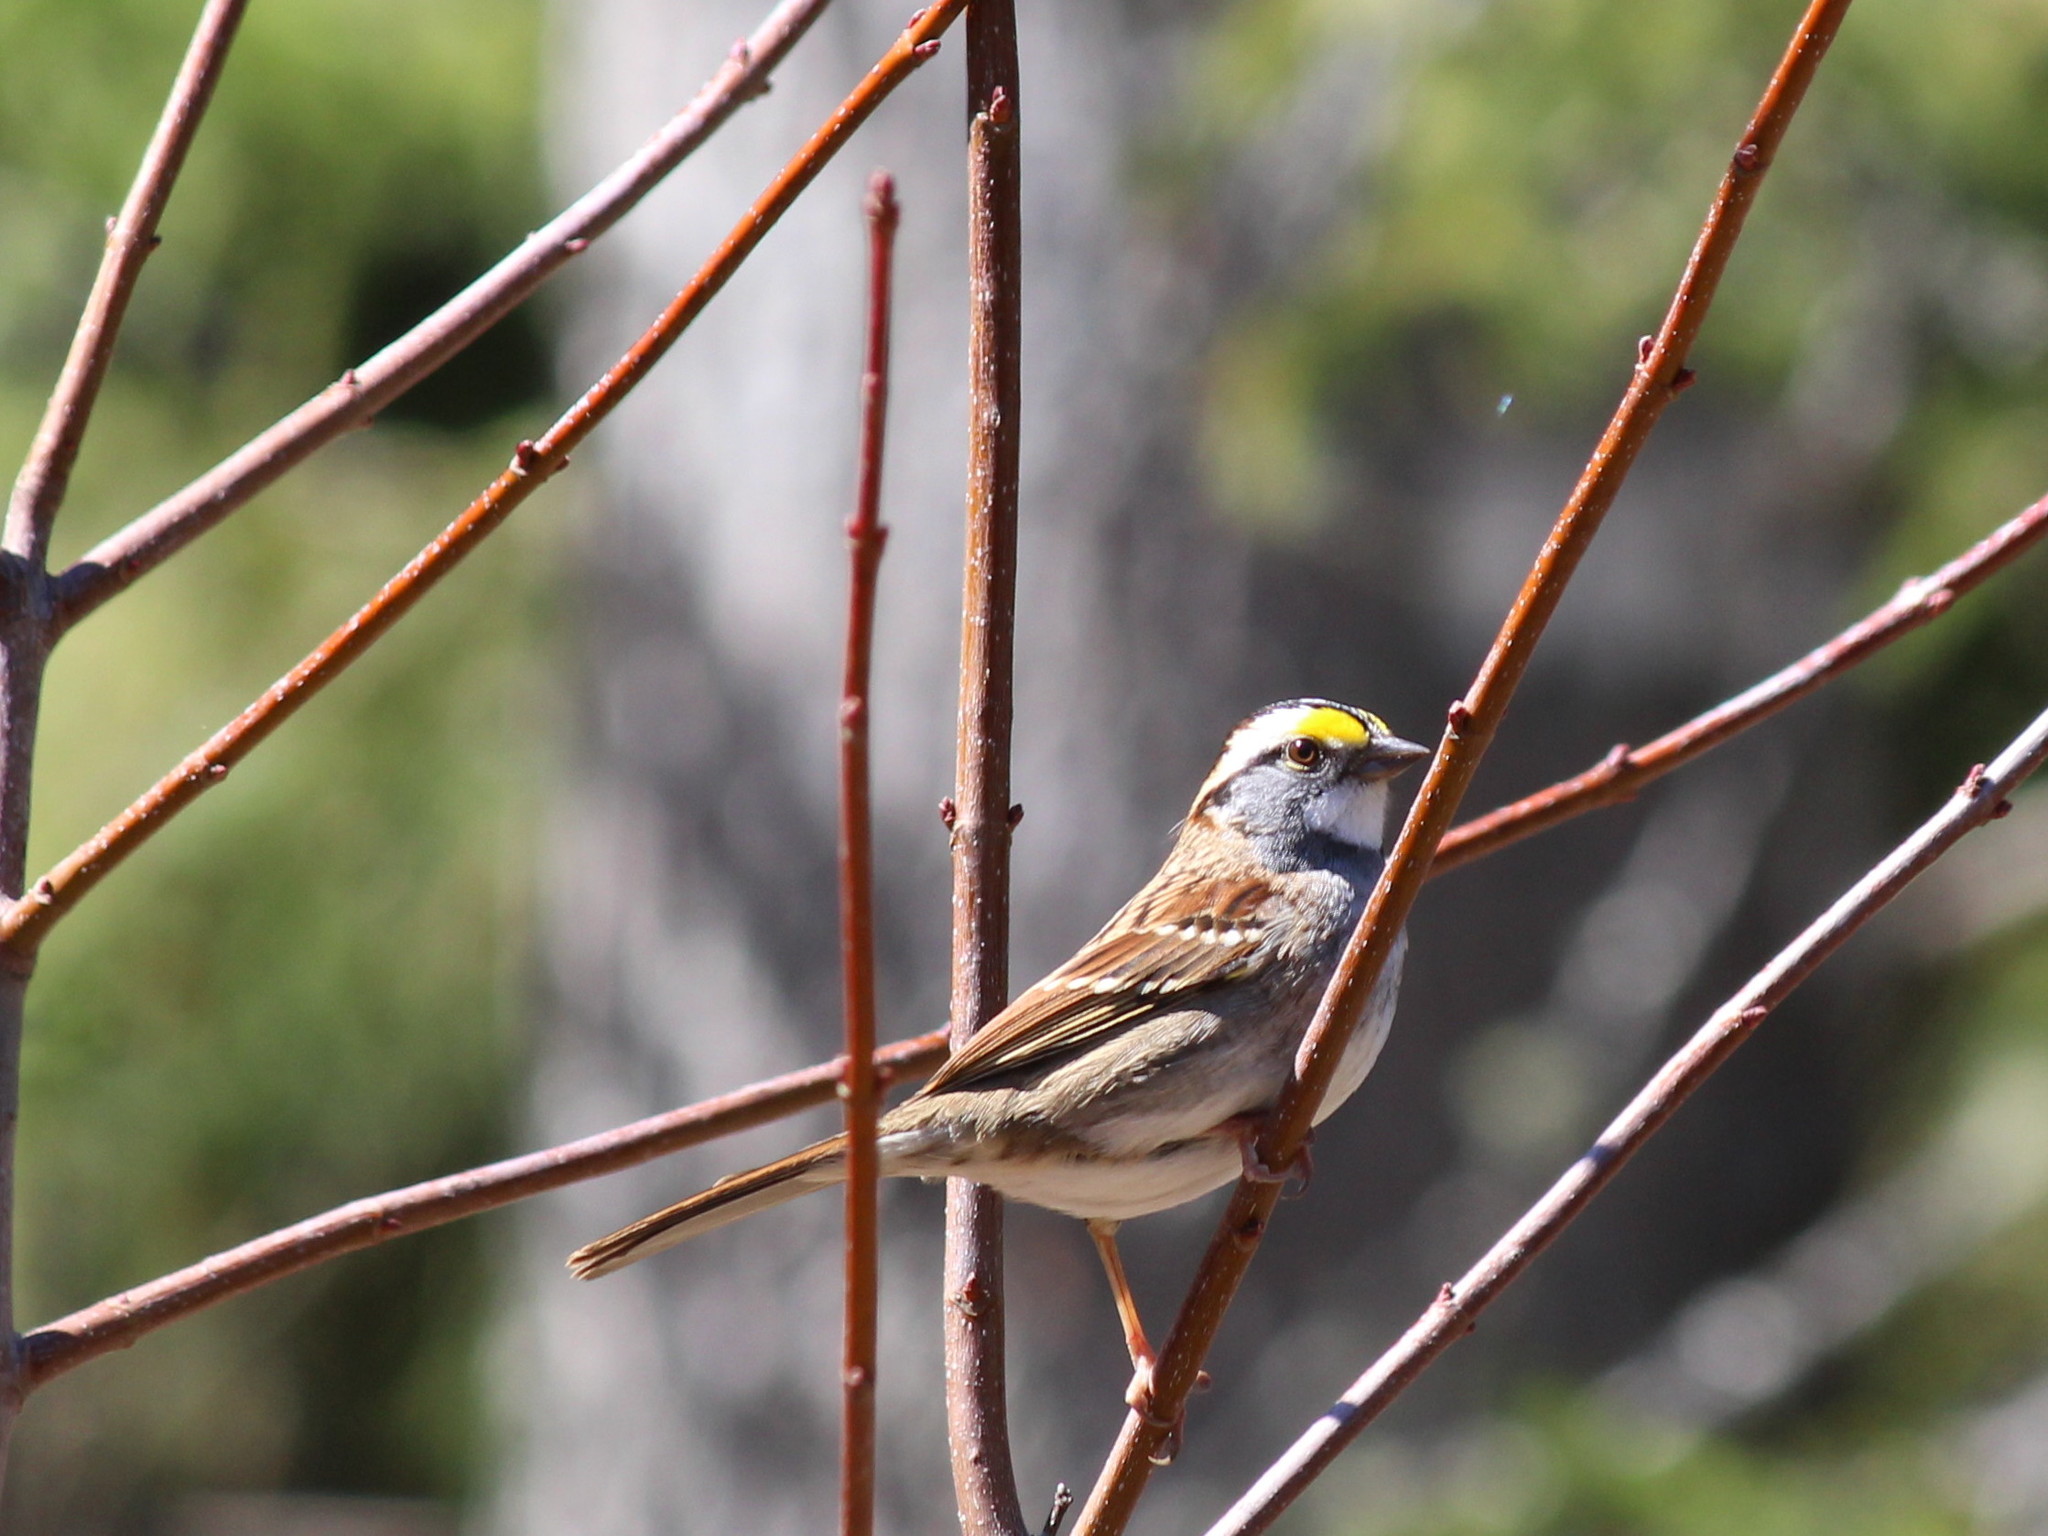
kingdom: Animalia
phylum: Chordata
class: Aves
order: Passeriformes
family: Passerellidae
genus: Zonotrichia
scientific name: Zonotrichia albicollis
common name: White-throated sparrow
